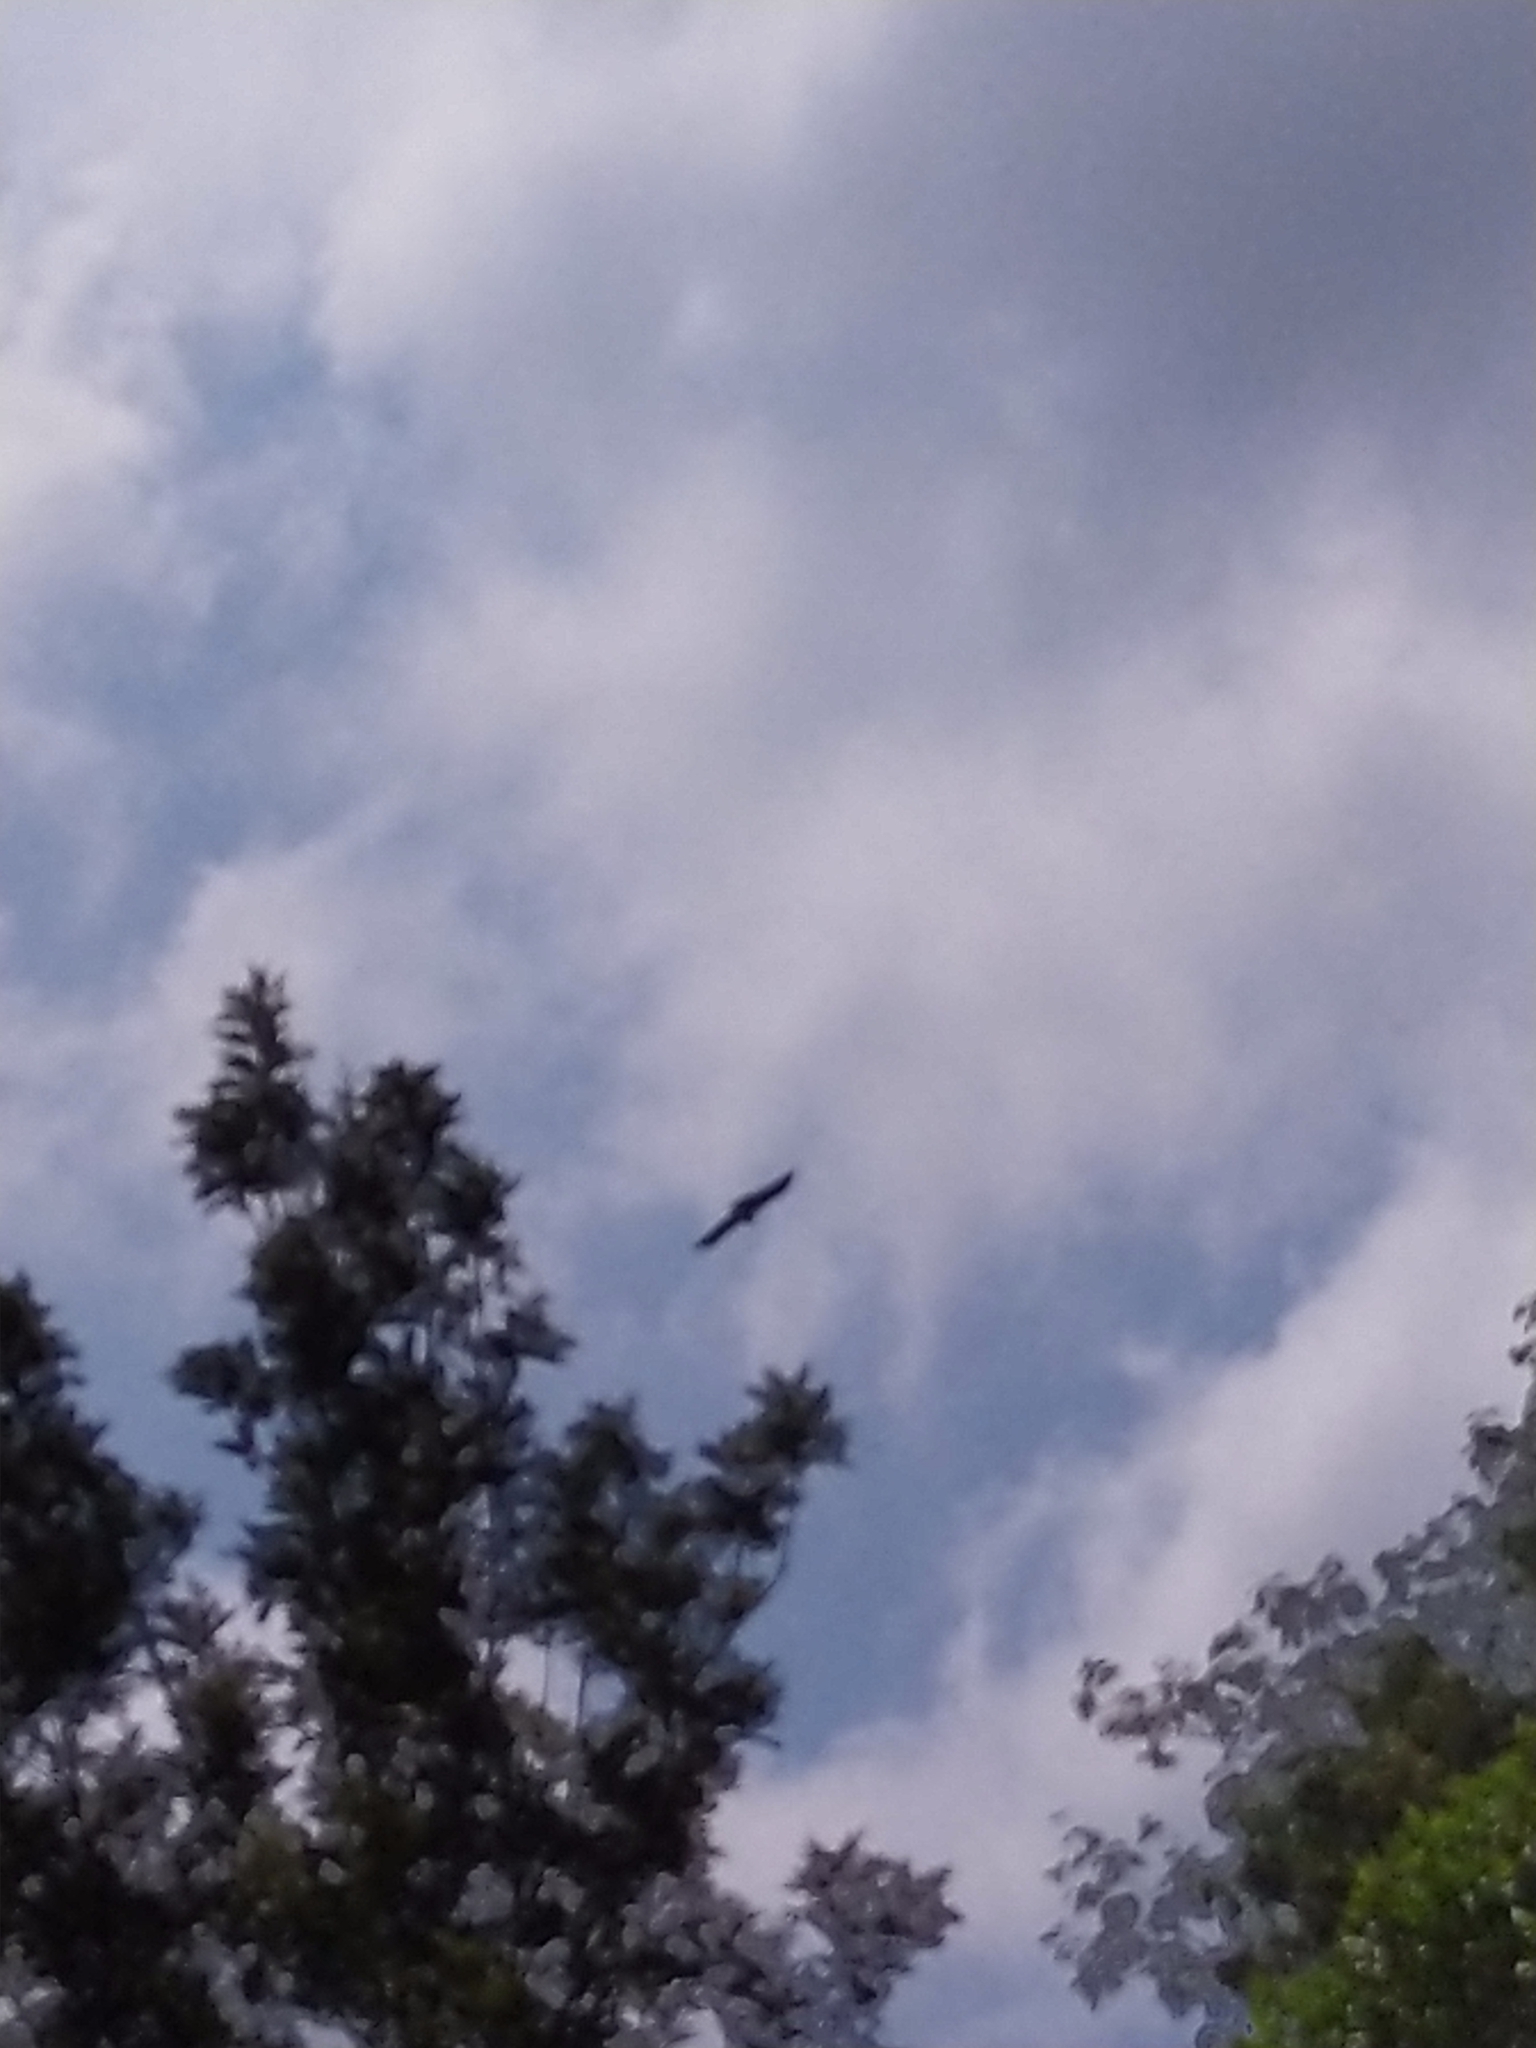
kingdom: Animalia
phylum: Chordata
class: Aves
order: Accipitriformes
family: Accipitridae
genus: Ictinaetus
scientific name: Ictinaetus malayensis
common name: Black eagle
